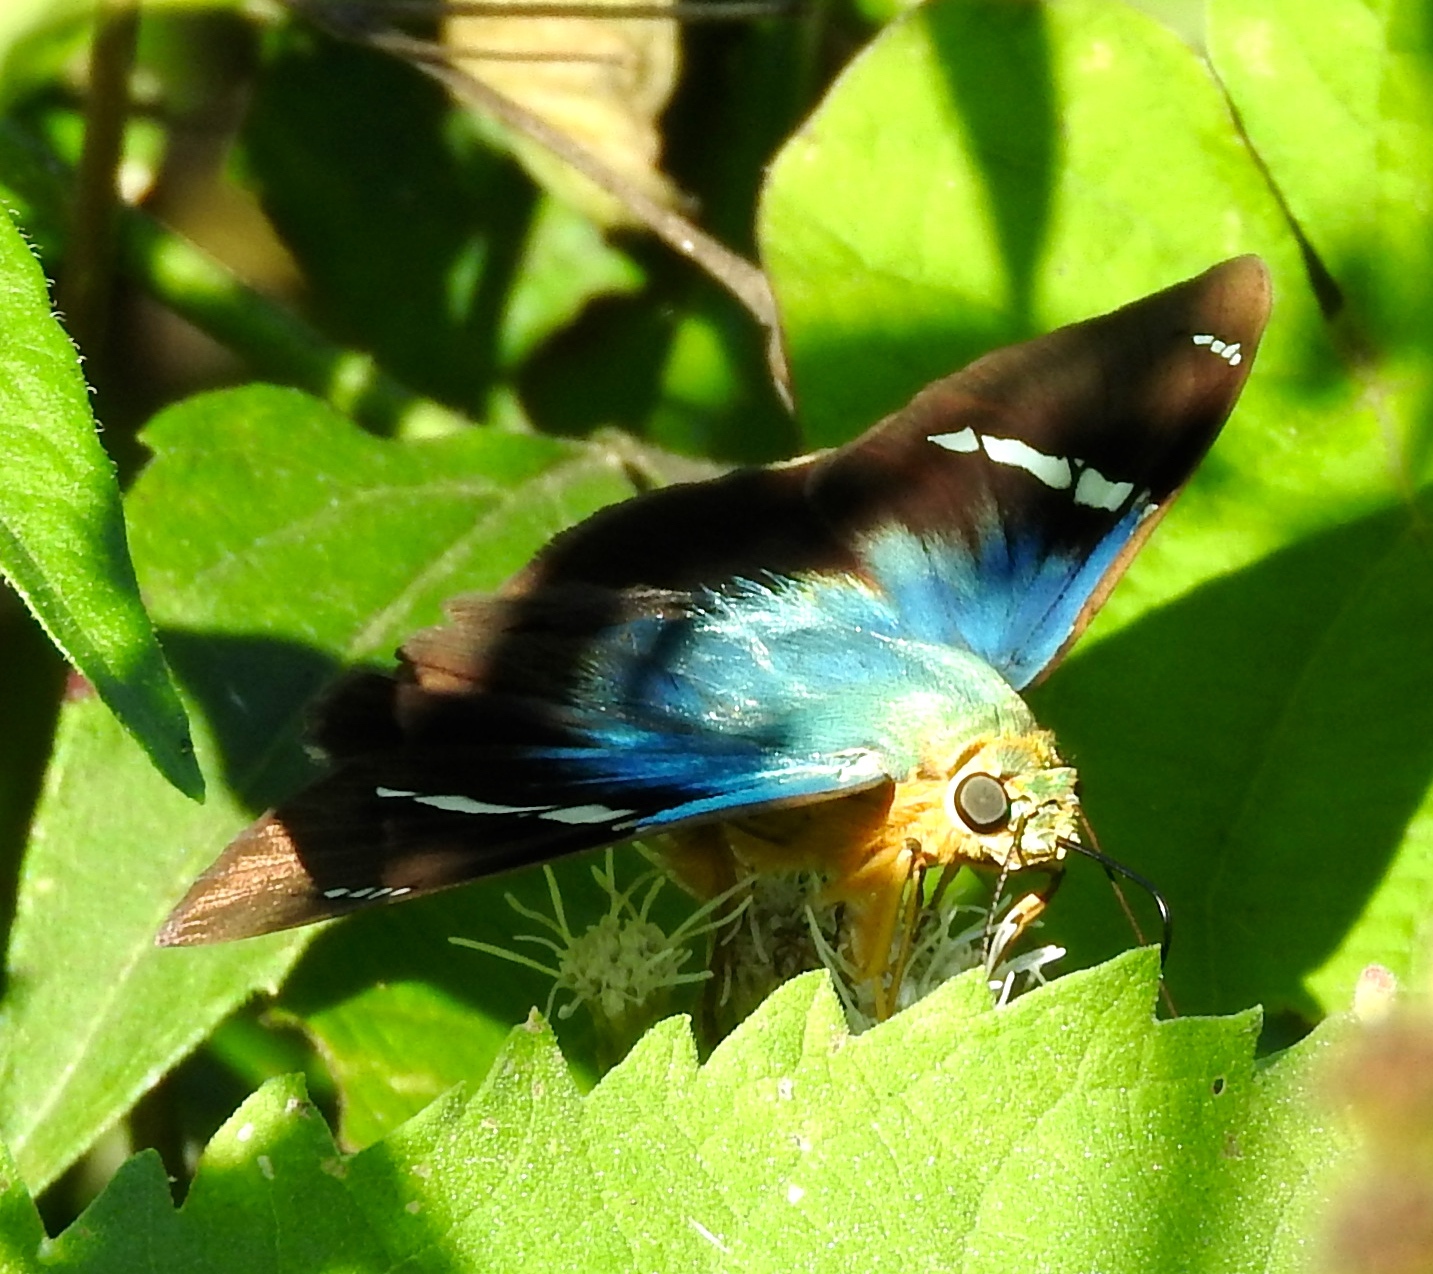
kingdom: Animalia
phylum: Arthropoda
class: Insecta
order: Lepidoptera
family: Hesperiidae
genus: Astraptes
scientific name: Astraptes fulgerator
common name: Two-barred flasher
